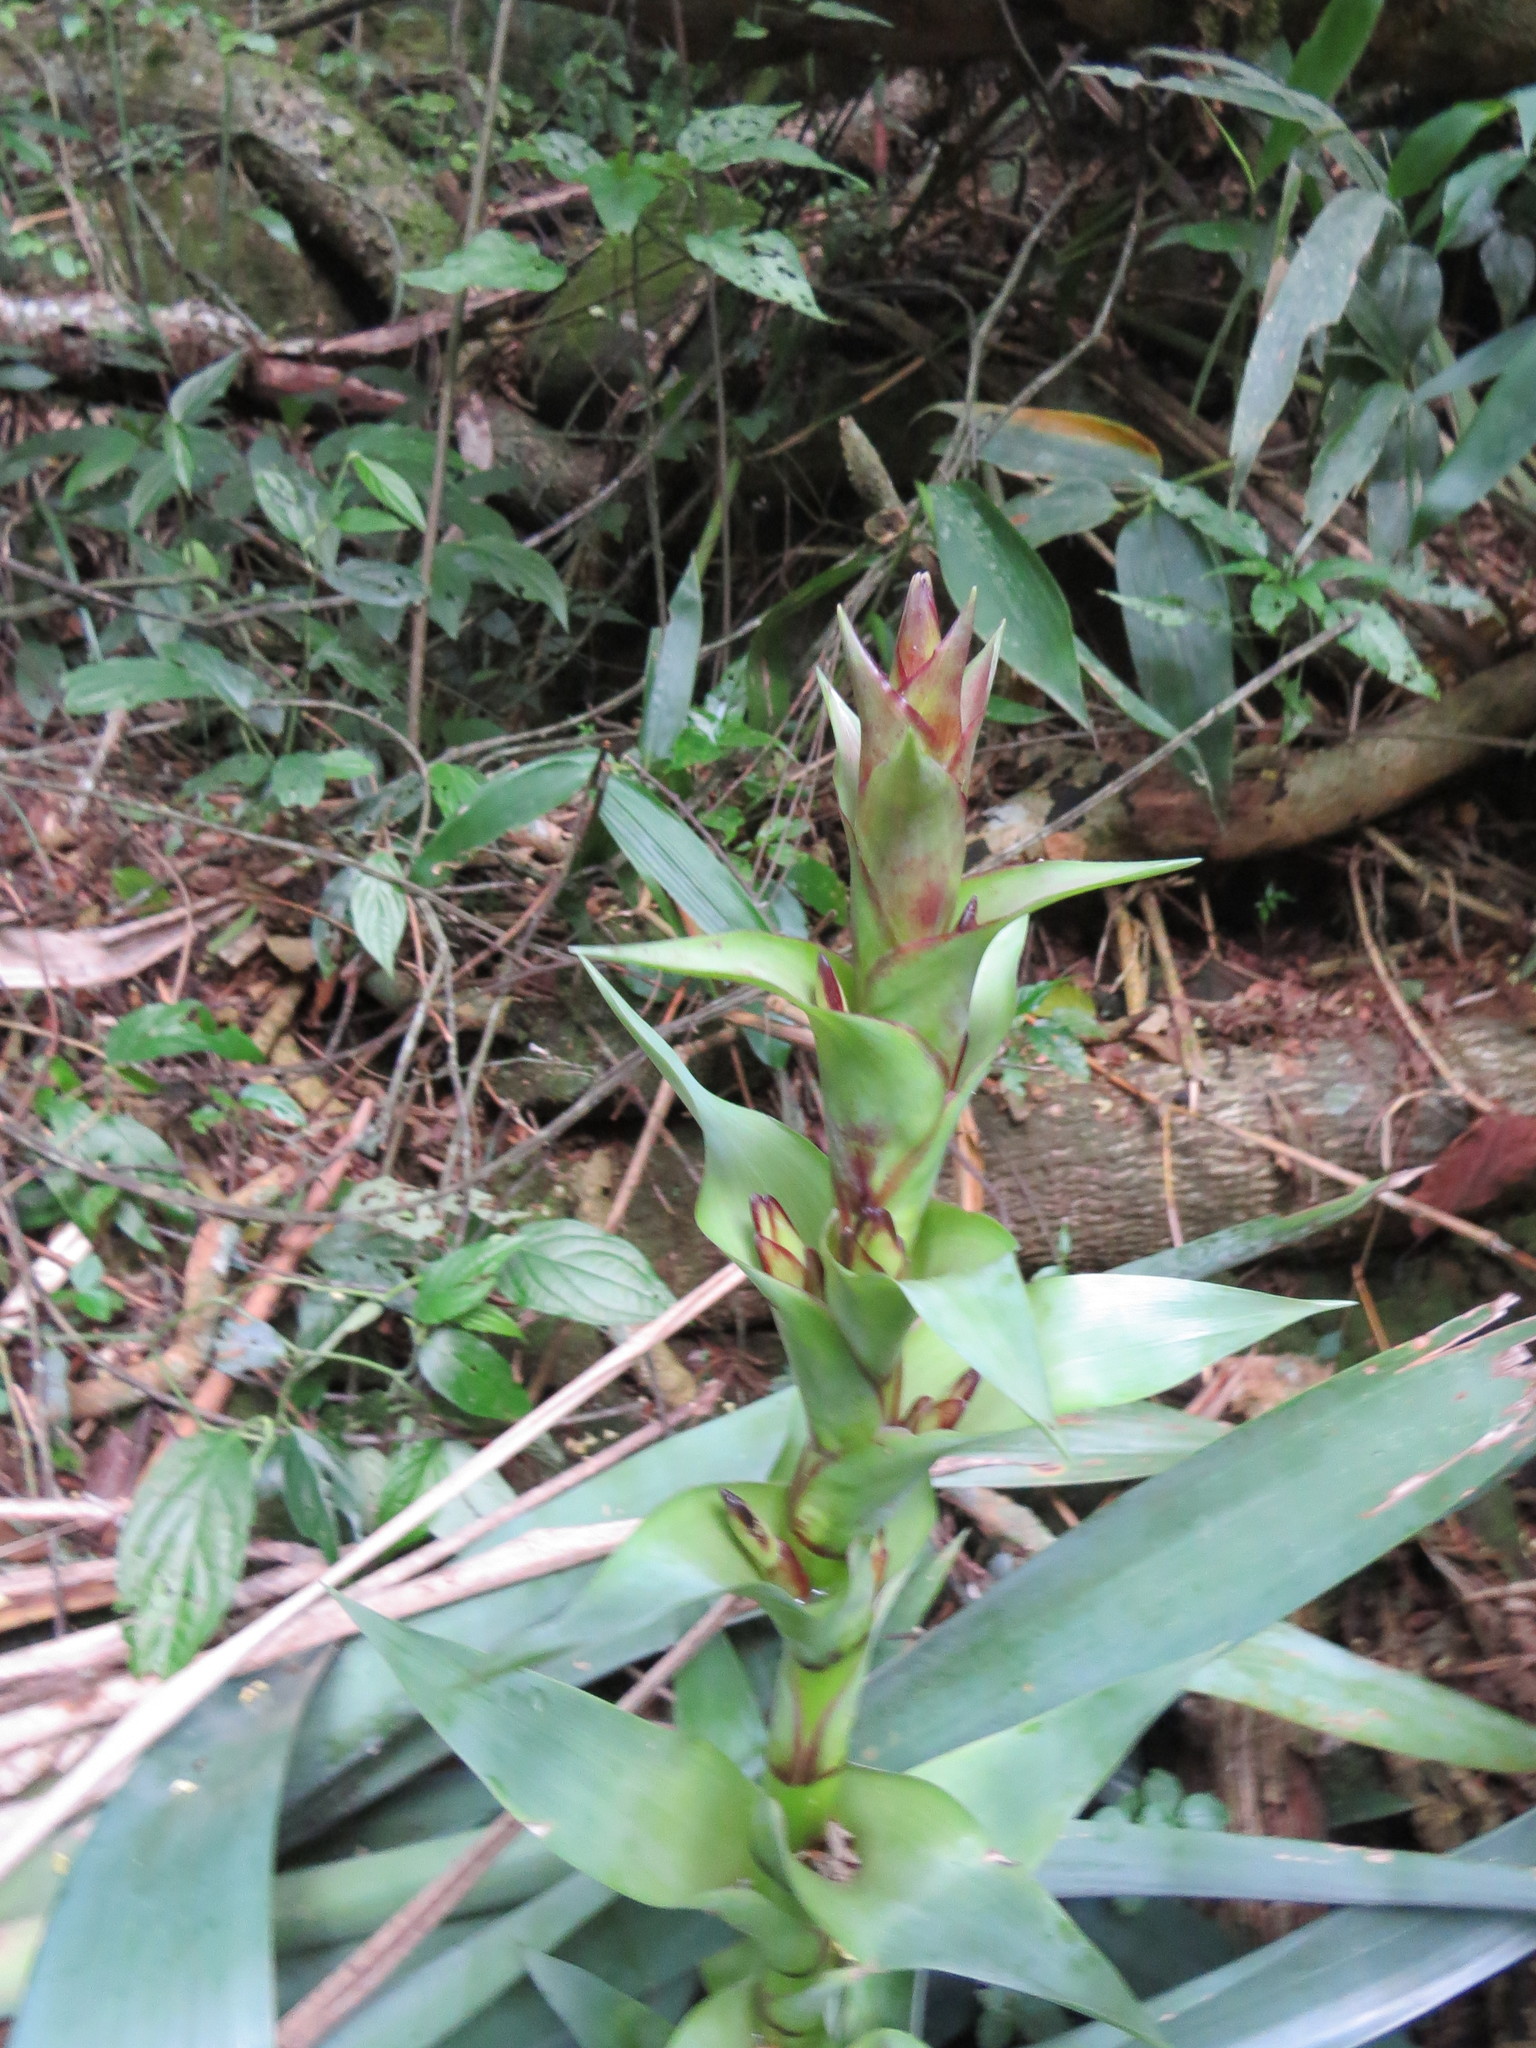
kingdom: Plantae
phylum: Tracheophyta
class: Liliopsida
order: Poales
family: Bromeliaceae
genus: Vriesea
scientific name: Vriesea gigantea
